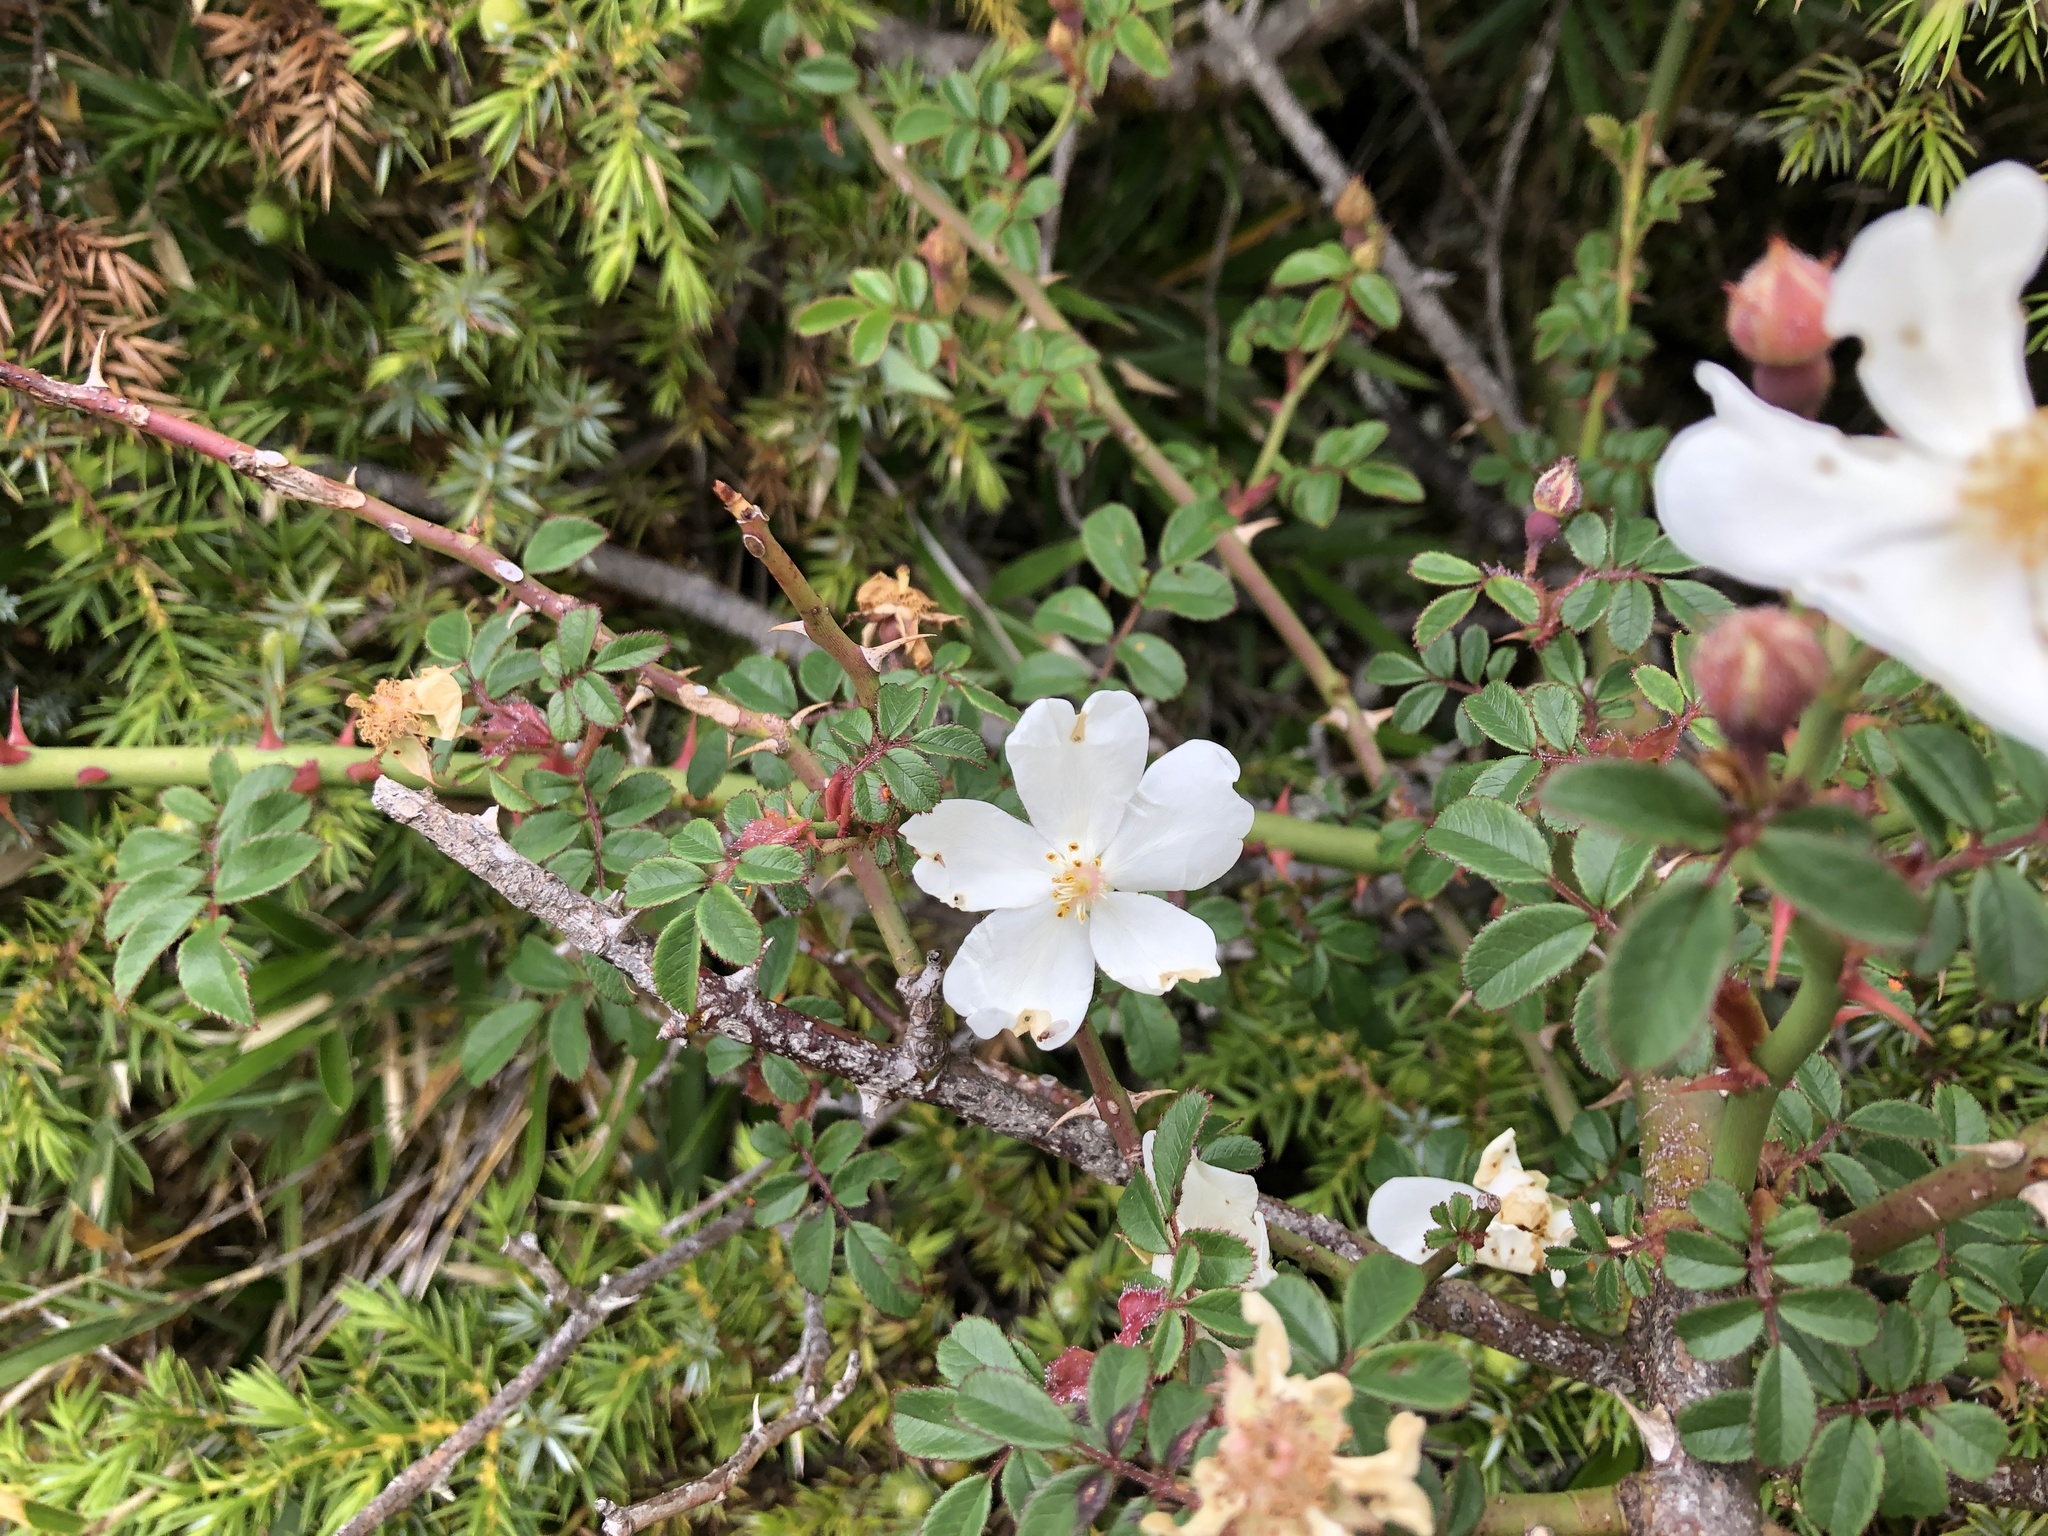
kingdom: Plantae
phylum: Tracheophyta
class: Magnoliopsida
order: Rosales
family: Rosaceae
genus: Rosa
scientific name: Rosa transmorrisonensis
